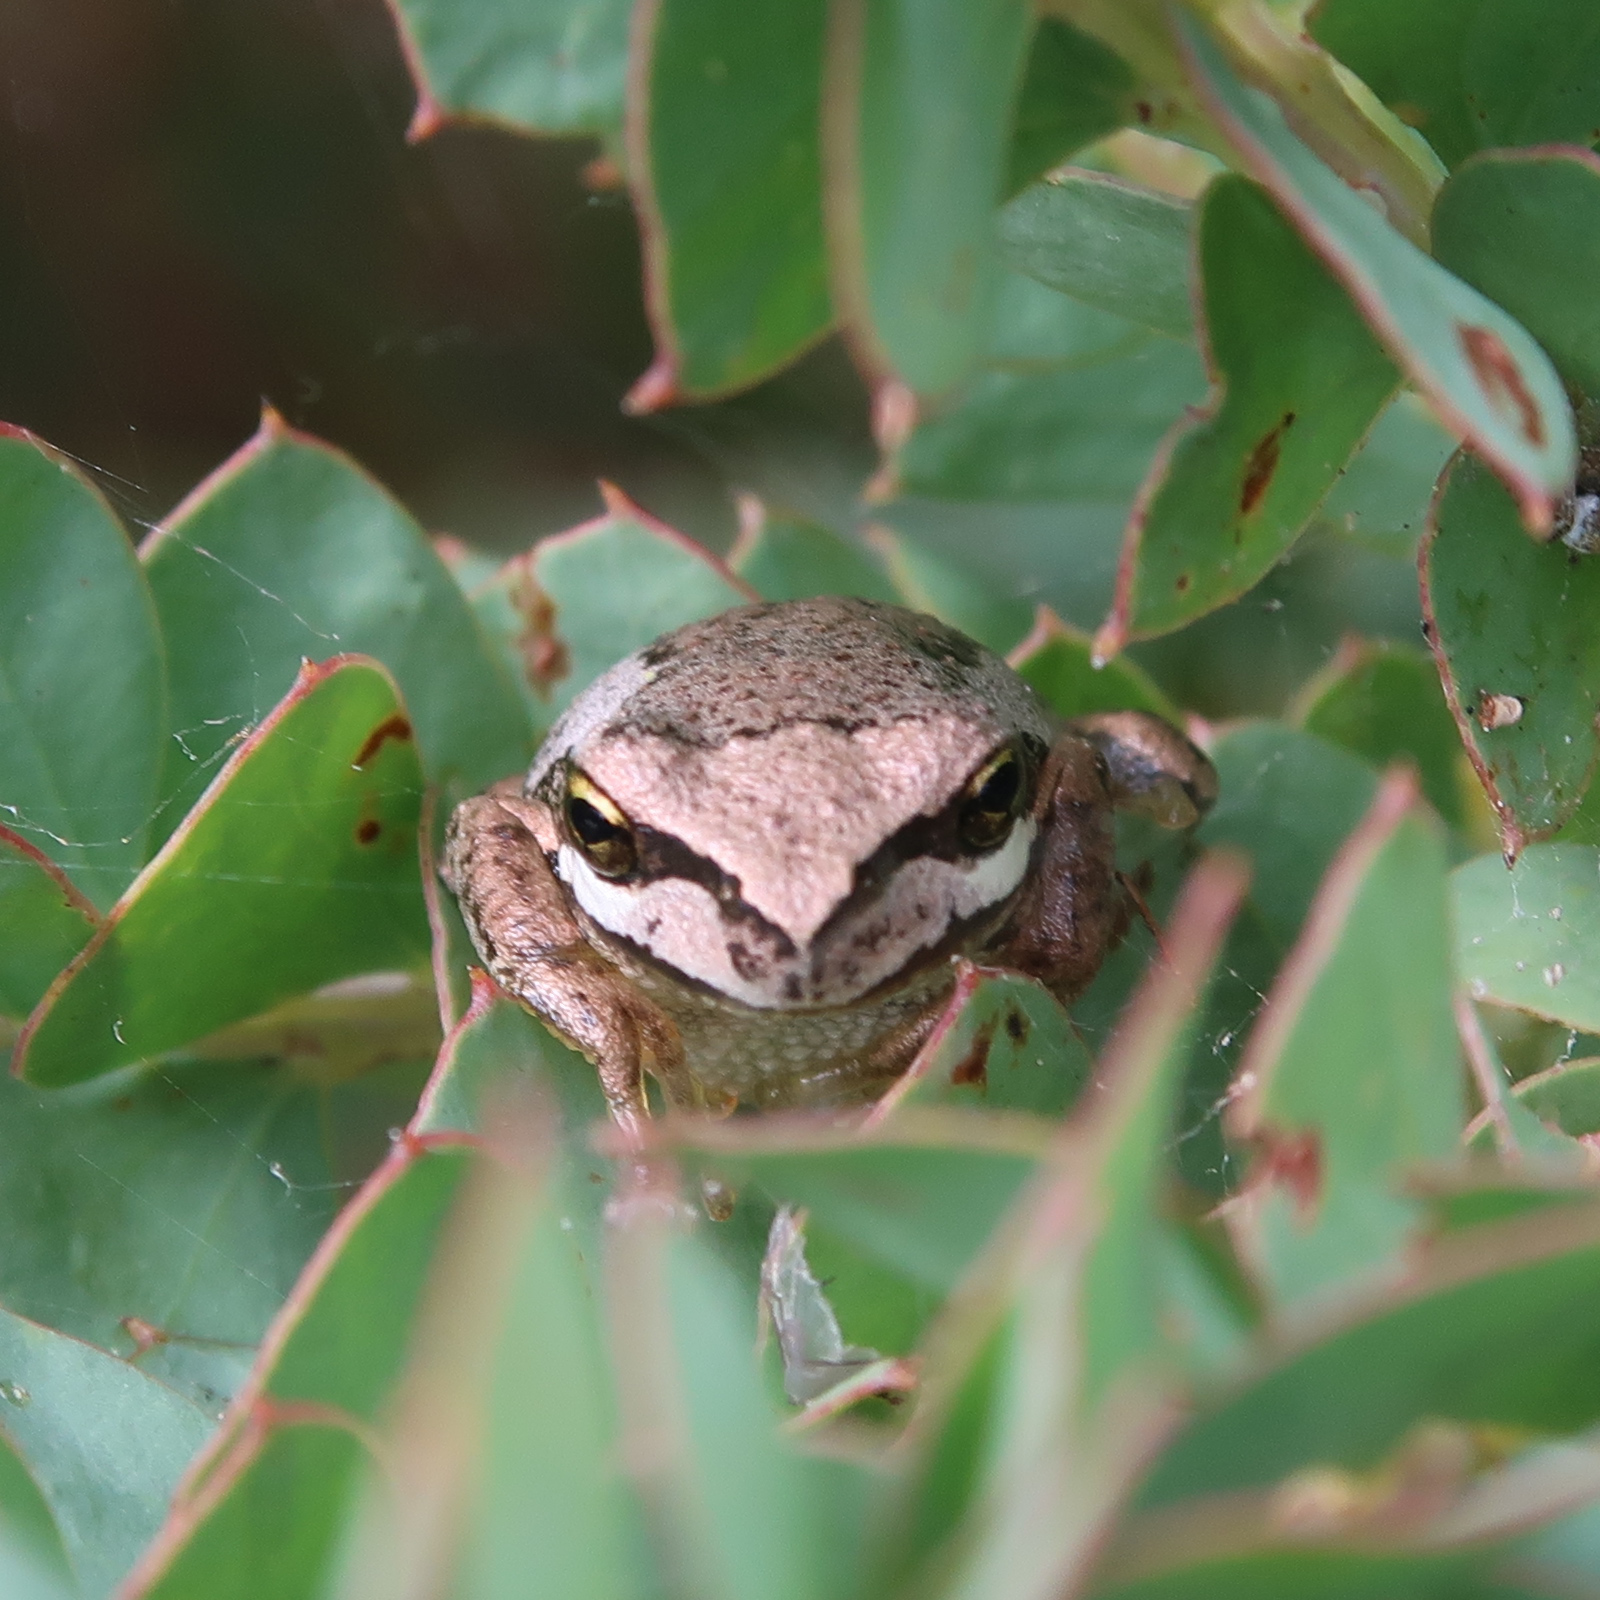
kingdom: Animalia
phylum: Chordata
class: Amphibia
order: Anura
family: Pelodryadidae
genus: Litoria
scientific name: Litoria ewingii
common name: Southern brown tree frog
